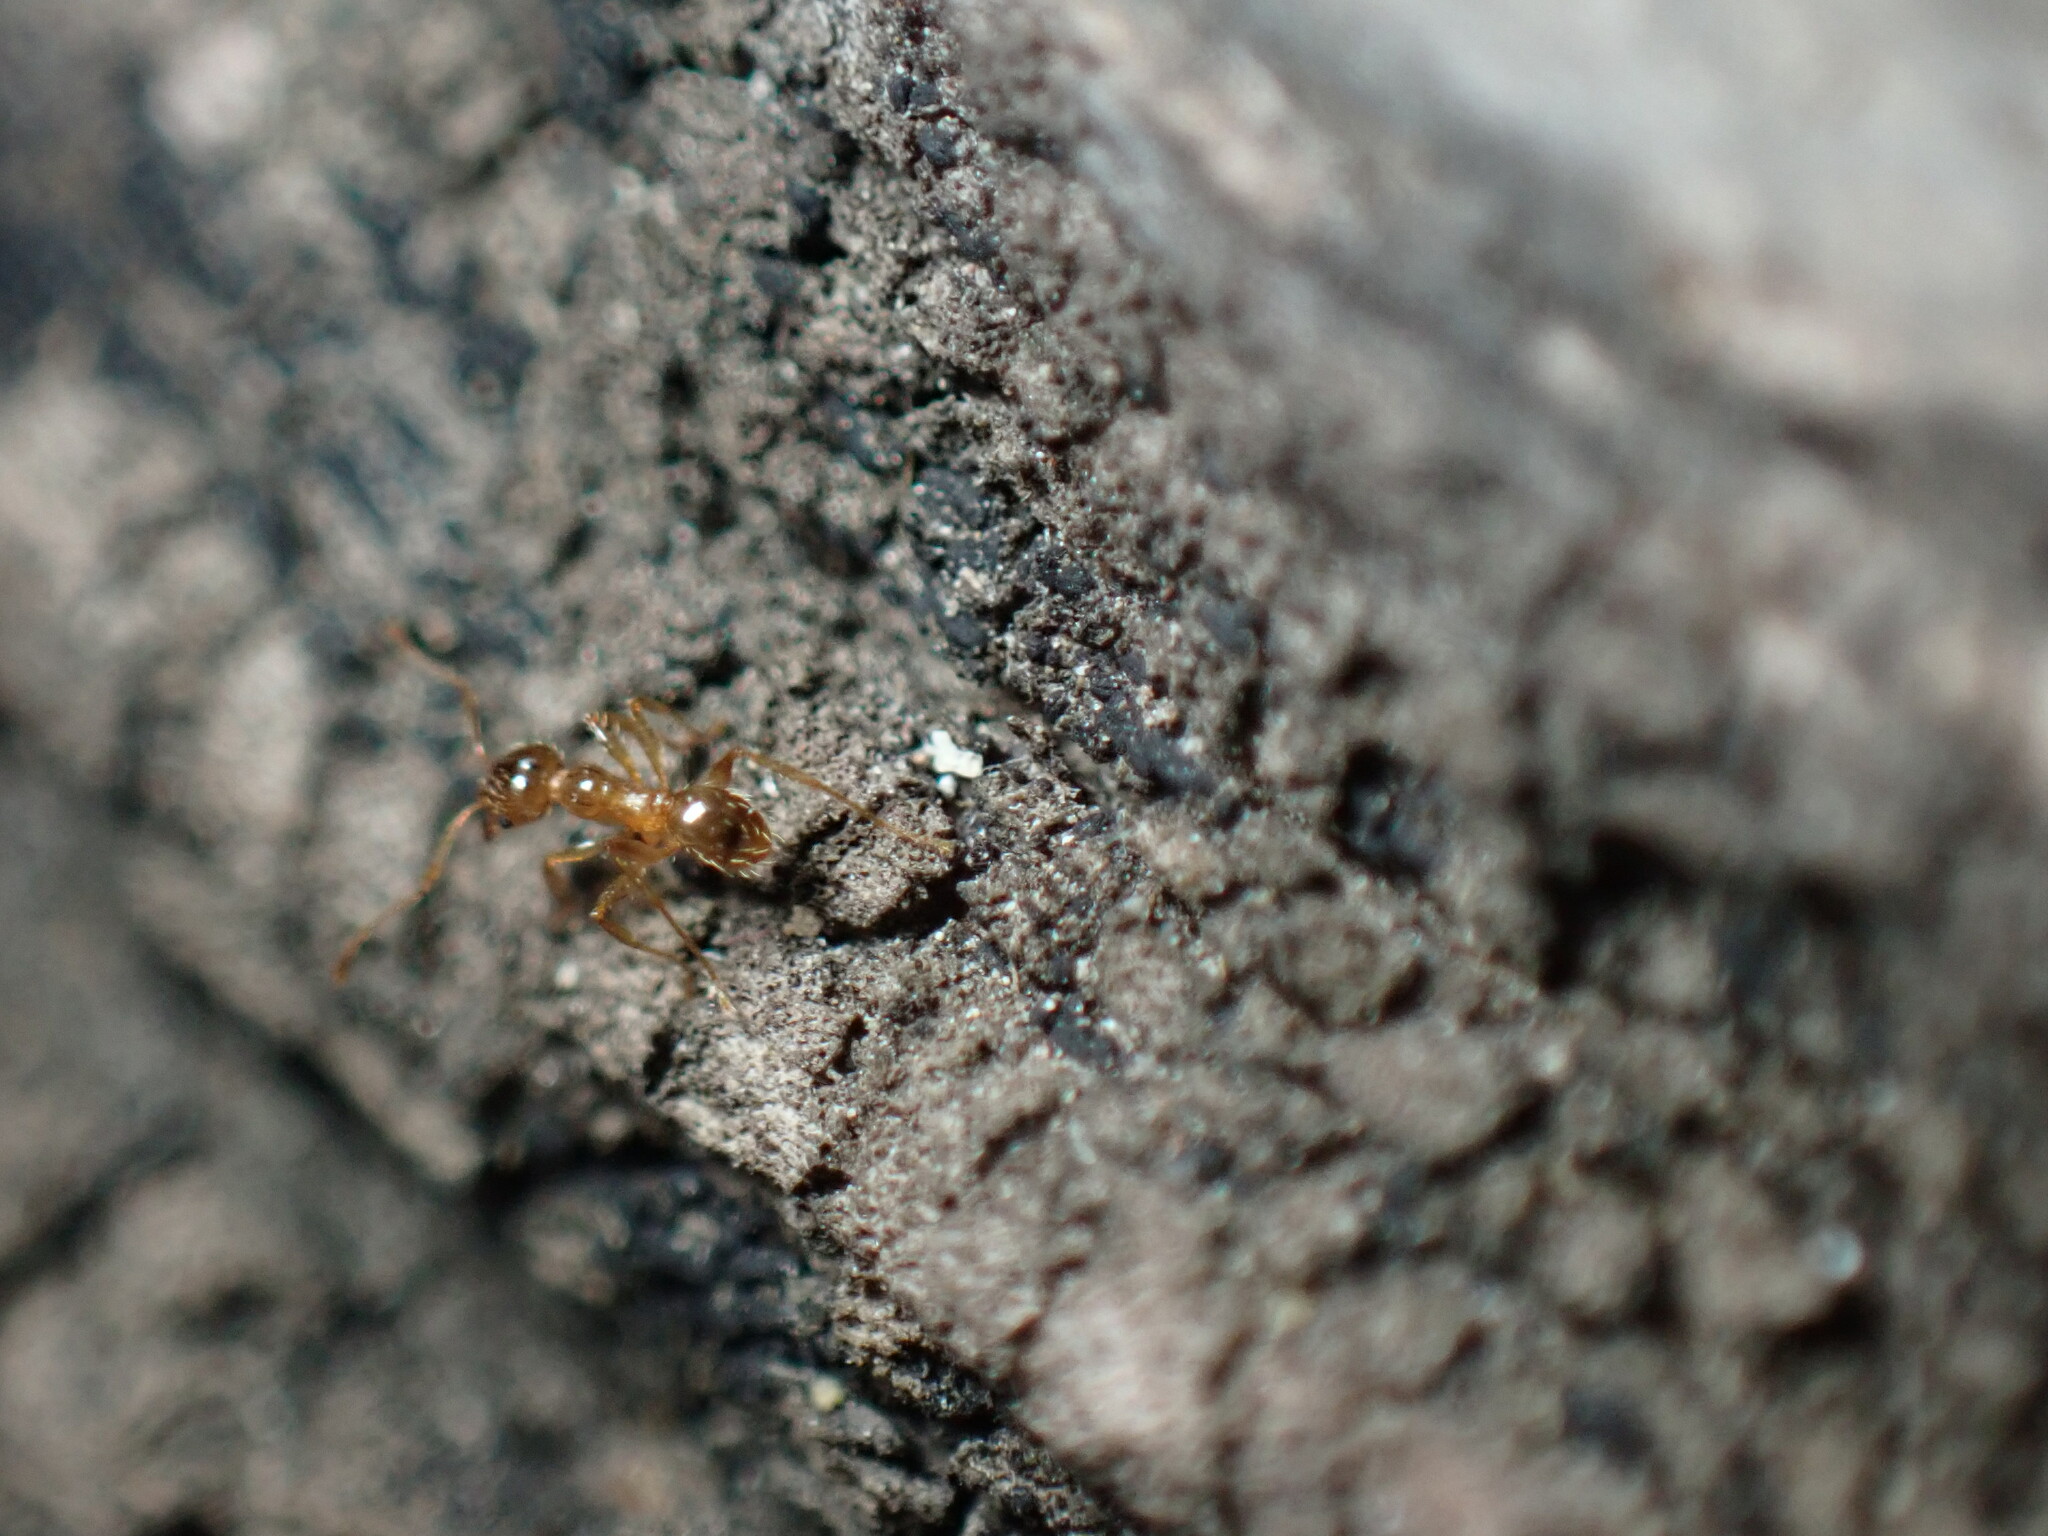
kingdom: Animalia
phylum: Arthropoda
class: Insecta
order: Hymenoptera
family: Formicidae
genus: Pheidole
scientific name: Pheidole pallidula
